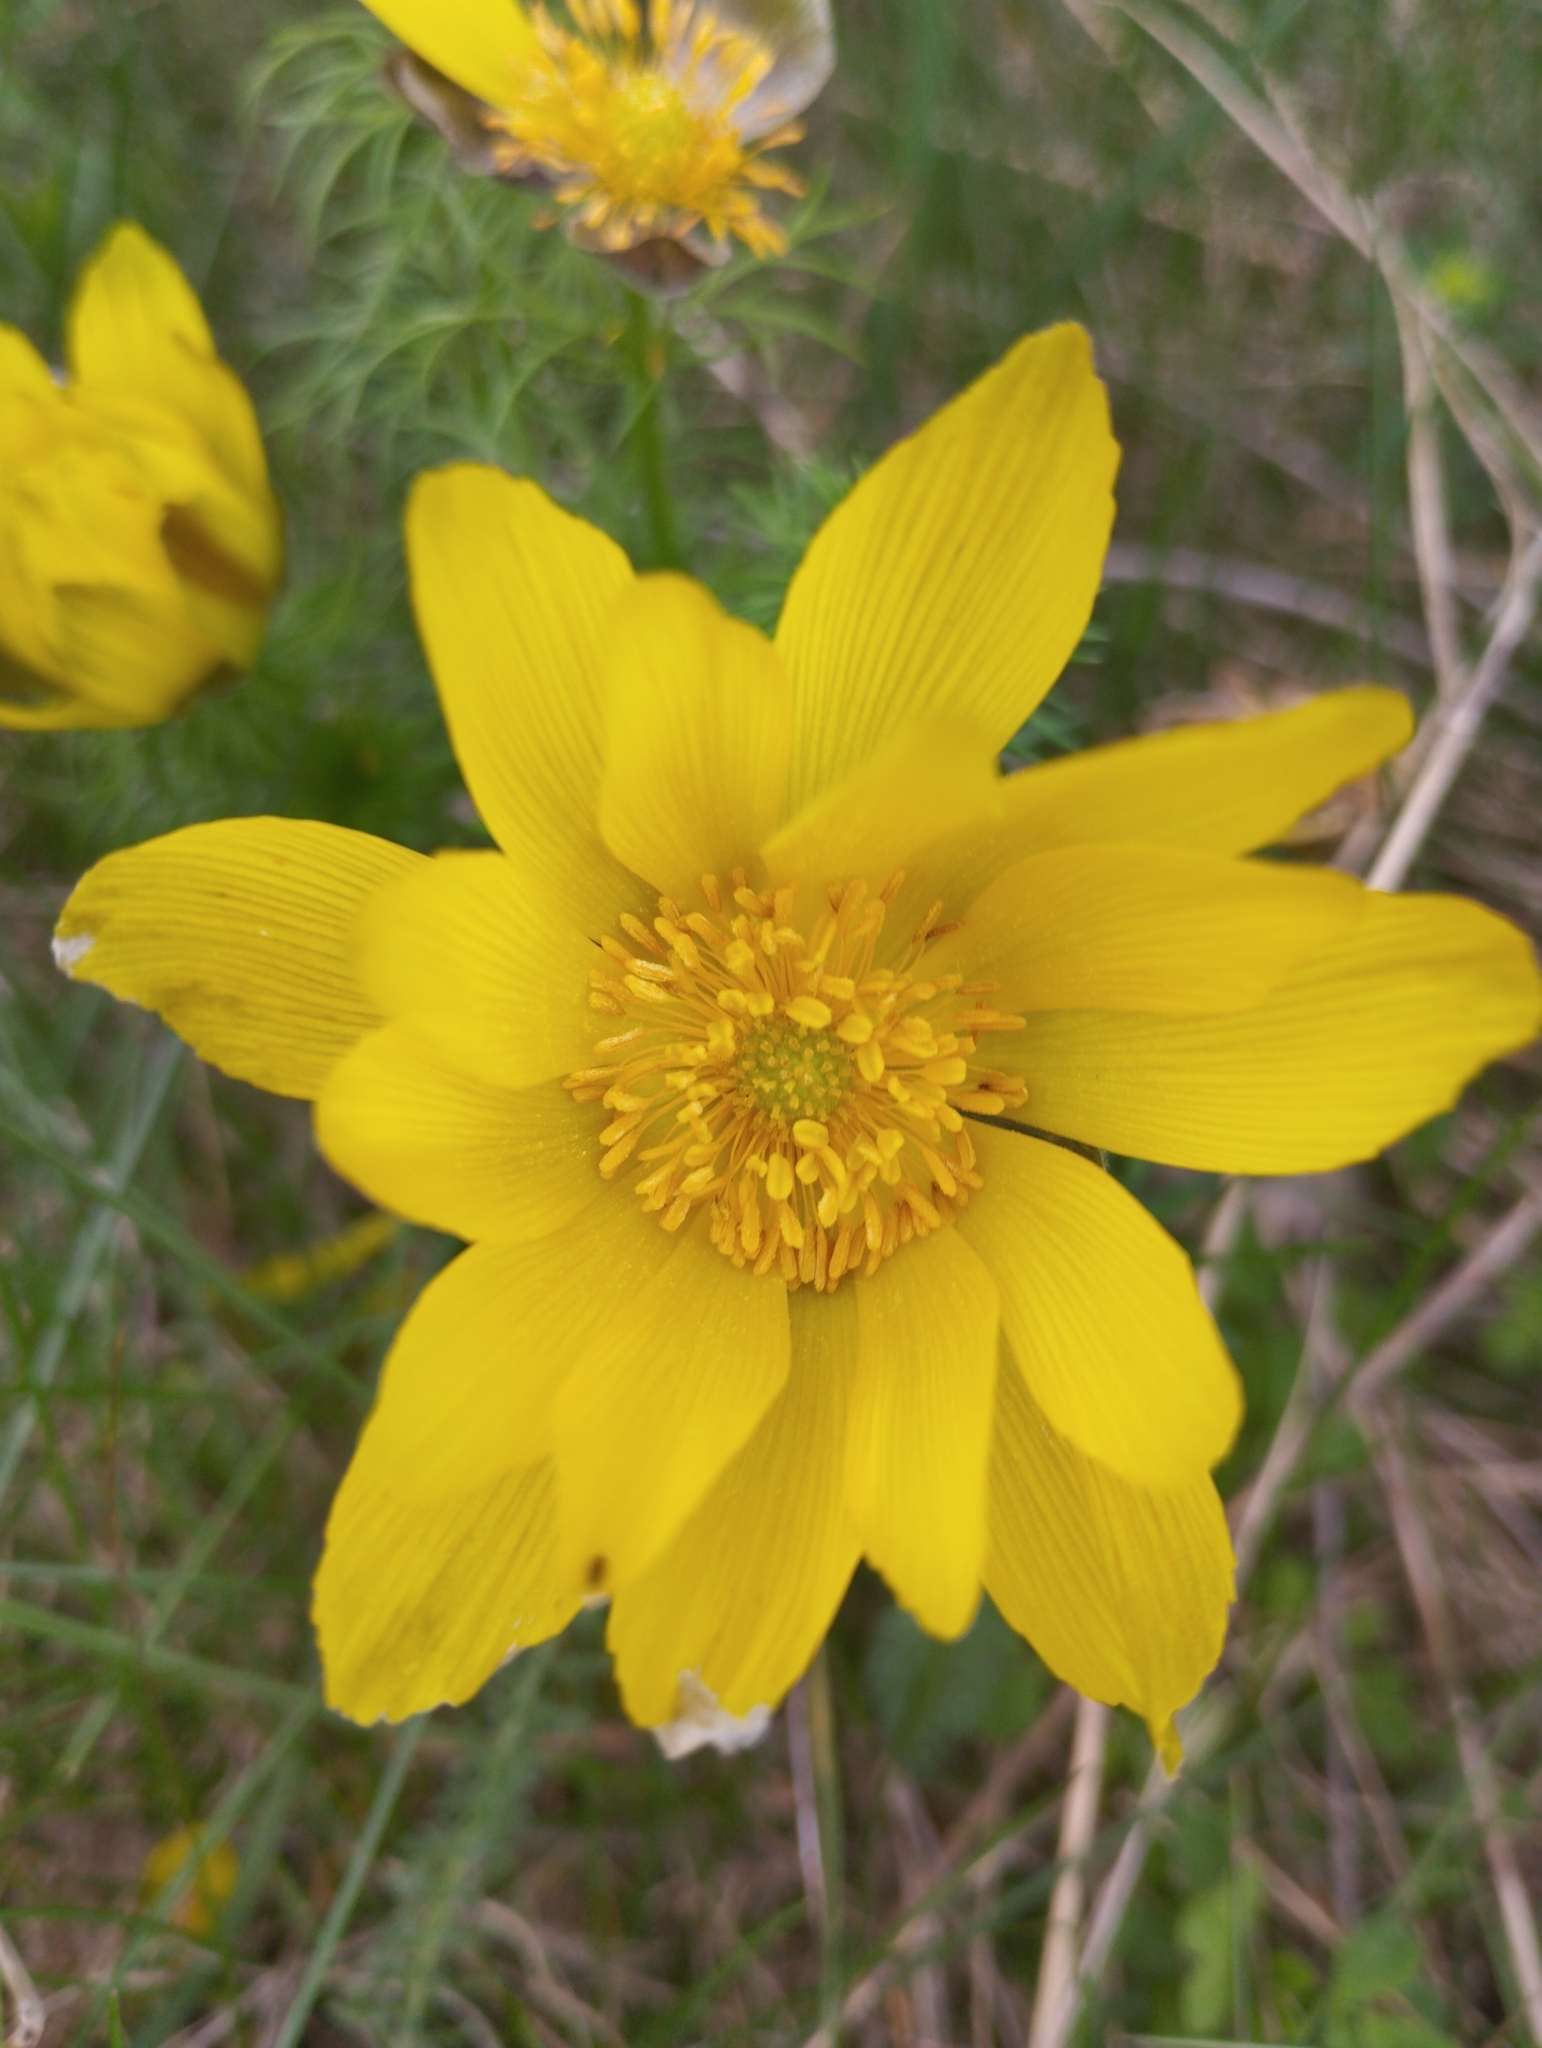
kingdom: Plantae
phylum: Tracheophyta
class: Magnoliopsida
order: Ranunculales
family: Ranunculaceae
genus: Adonis
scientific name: Adonis vernalis
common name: Yellow pheasants-eye
